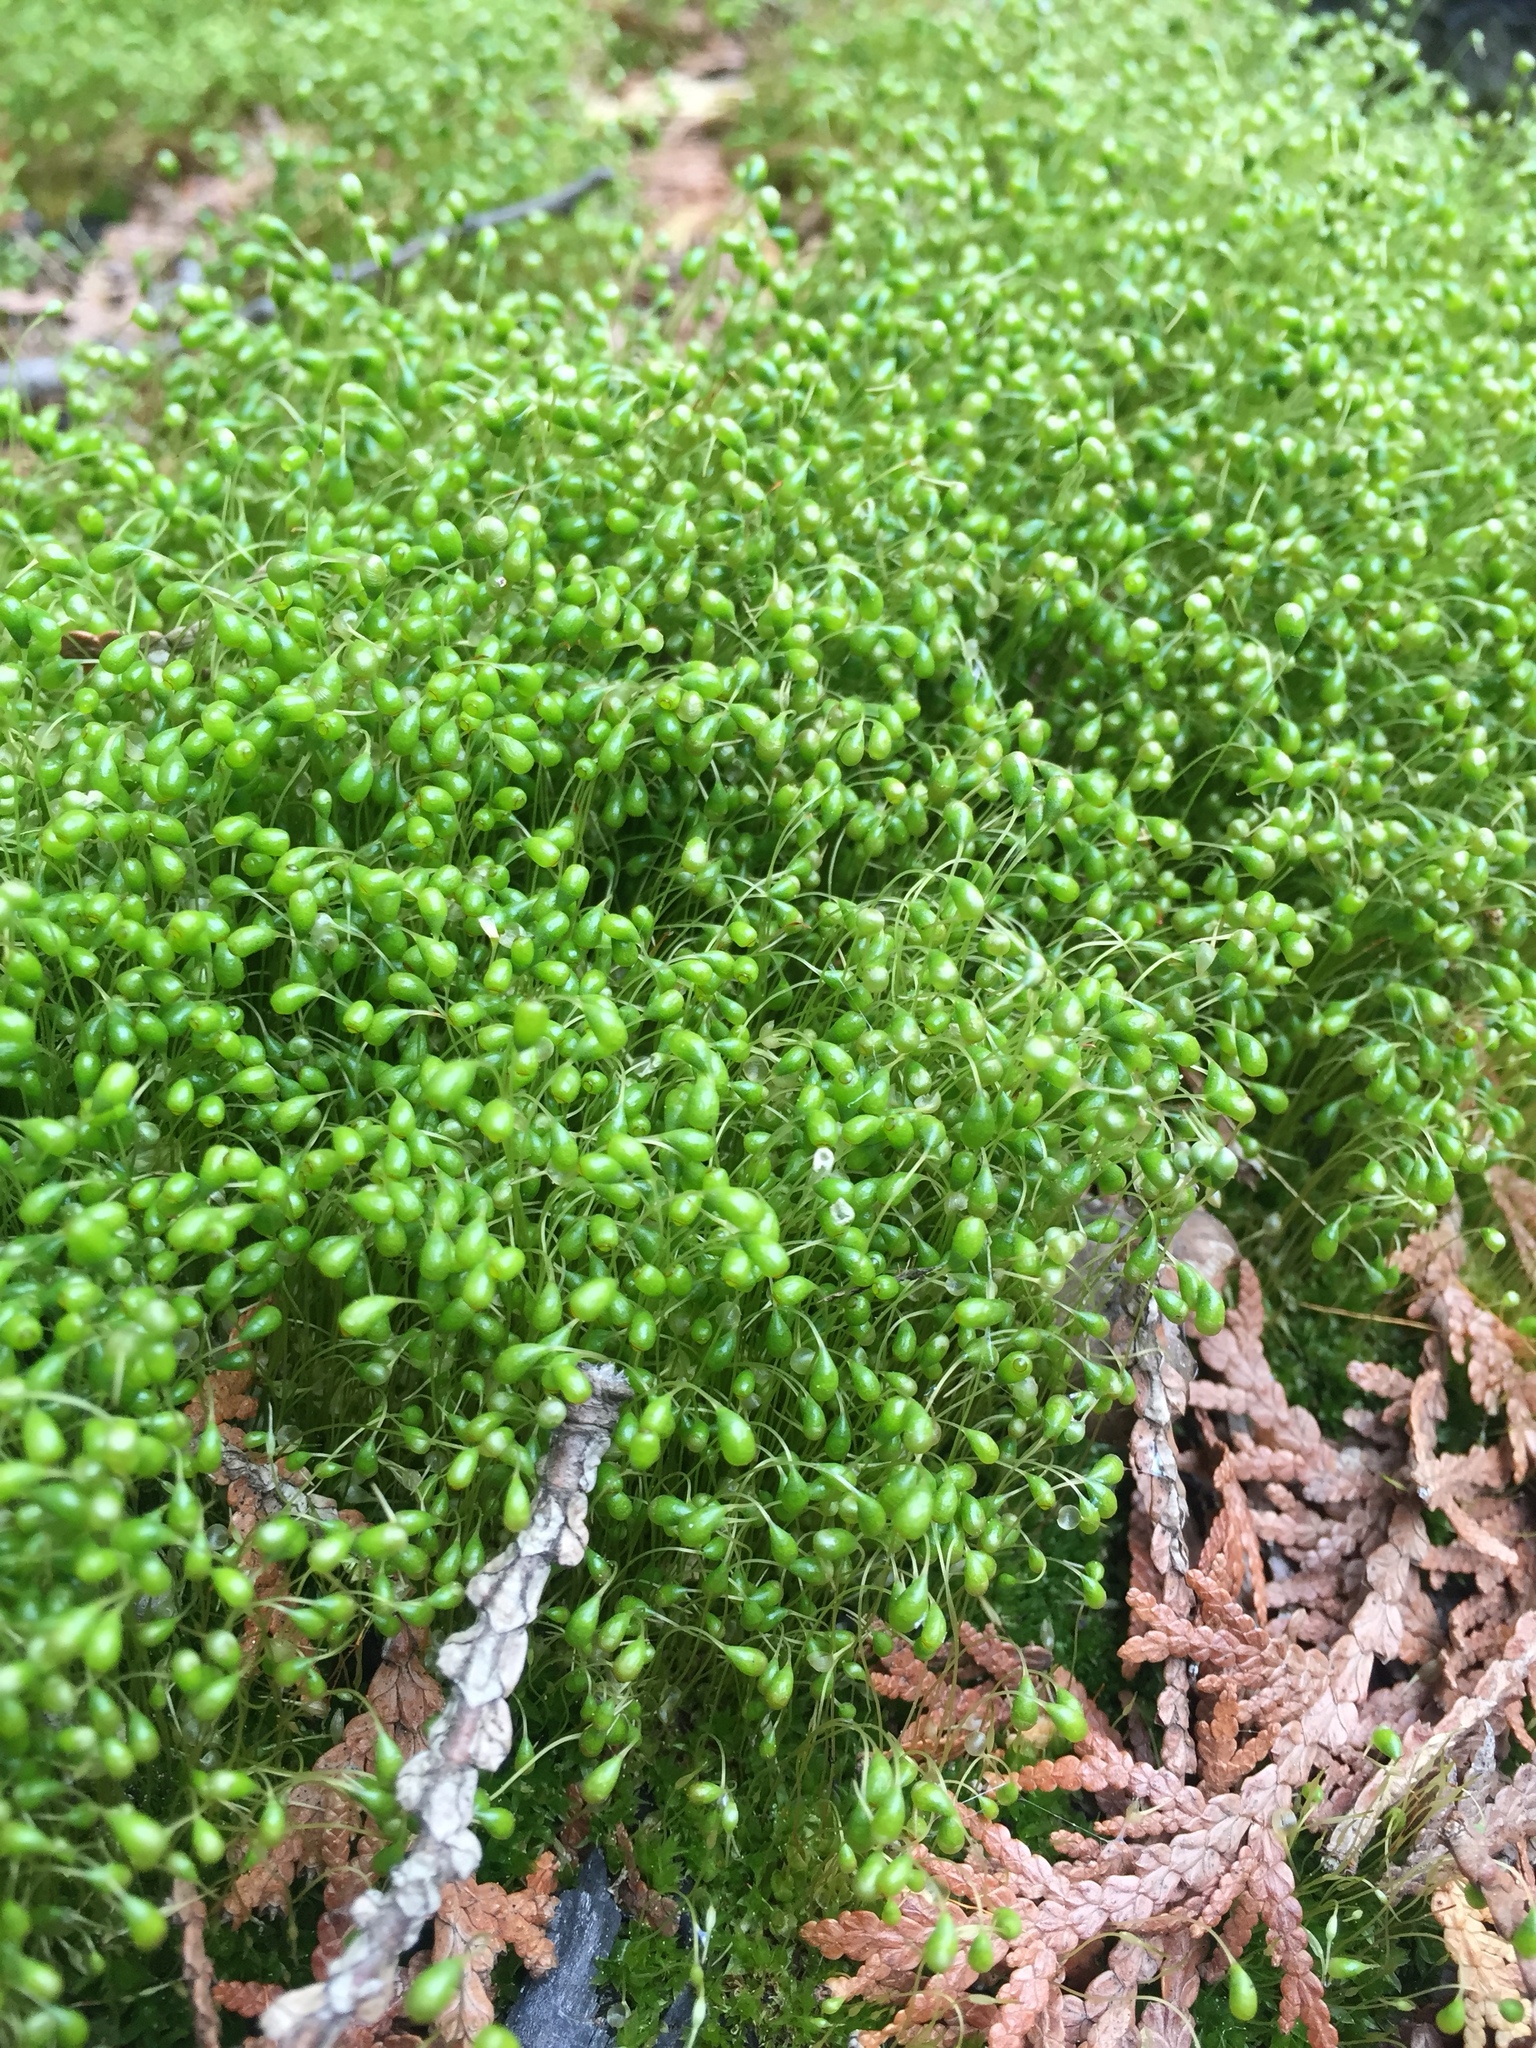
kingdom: Plantae
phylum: Bryophyta
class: Bryopsida
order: Funariales
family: Funariaceae
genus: Funaria
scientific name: Funaria hygrometrica
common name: Common cord moss
